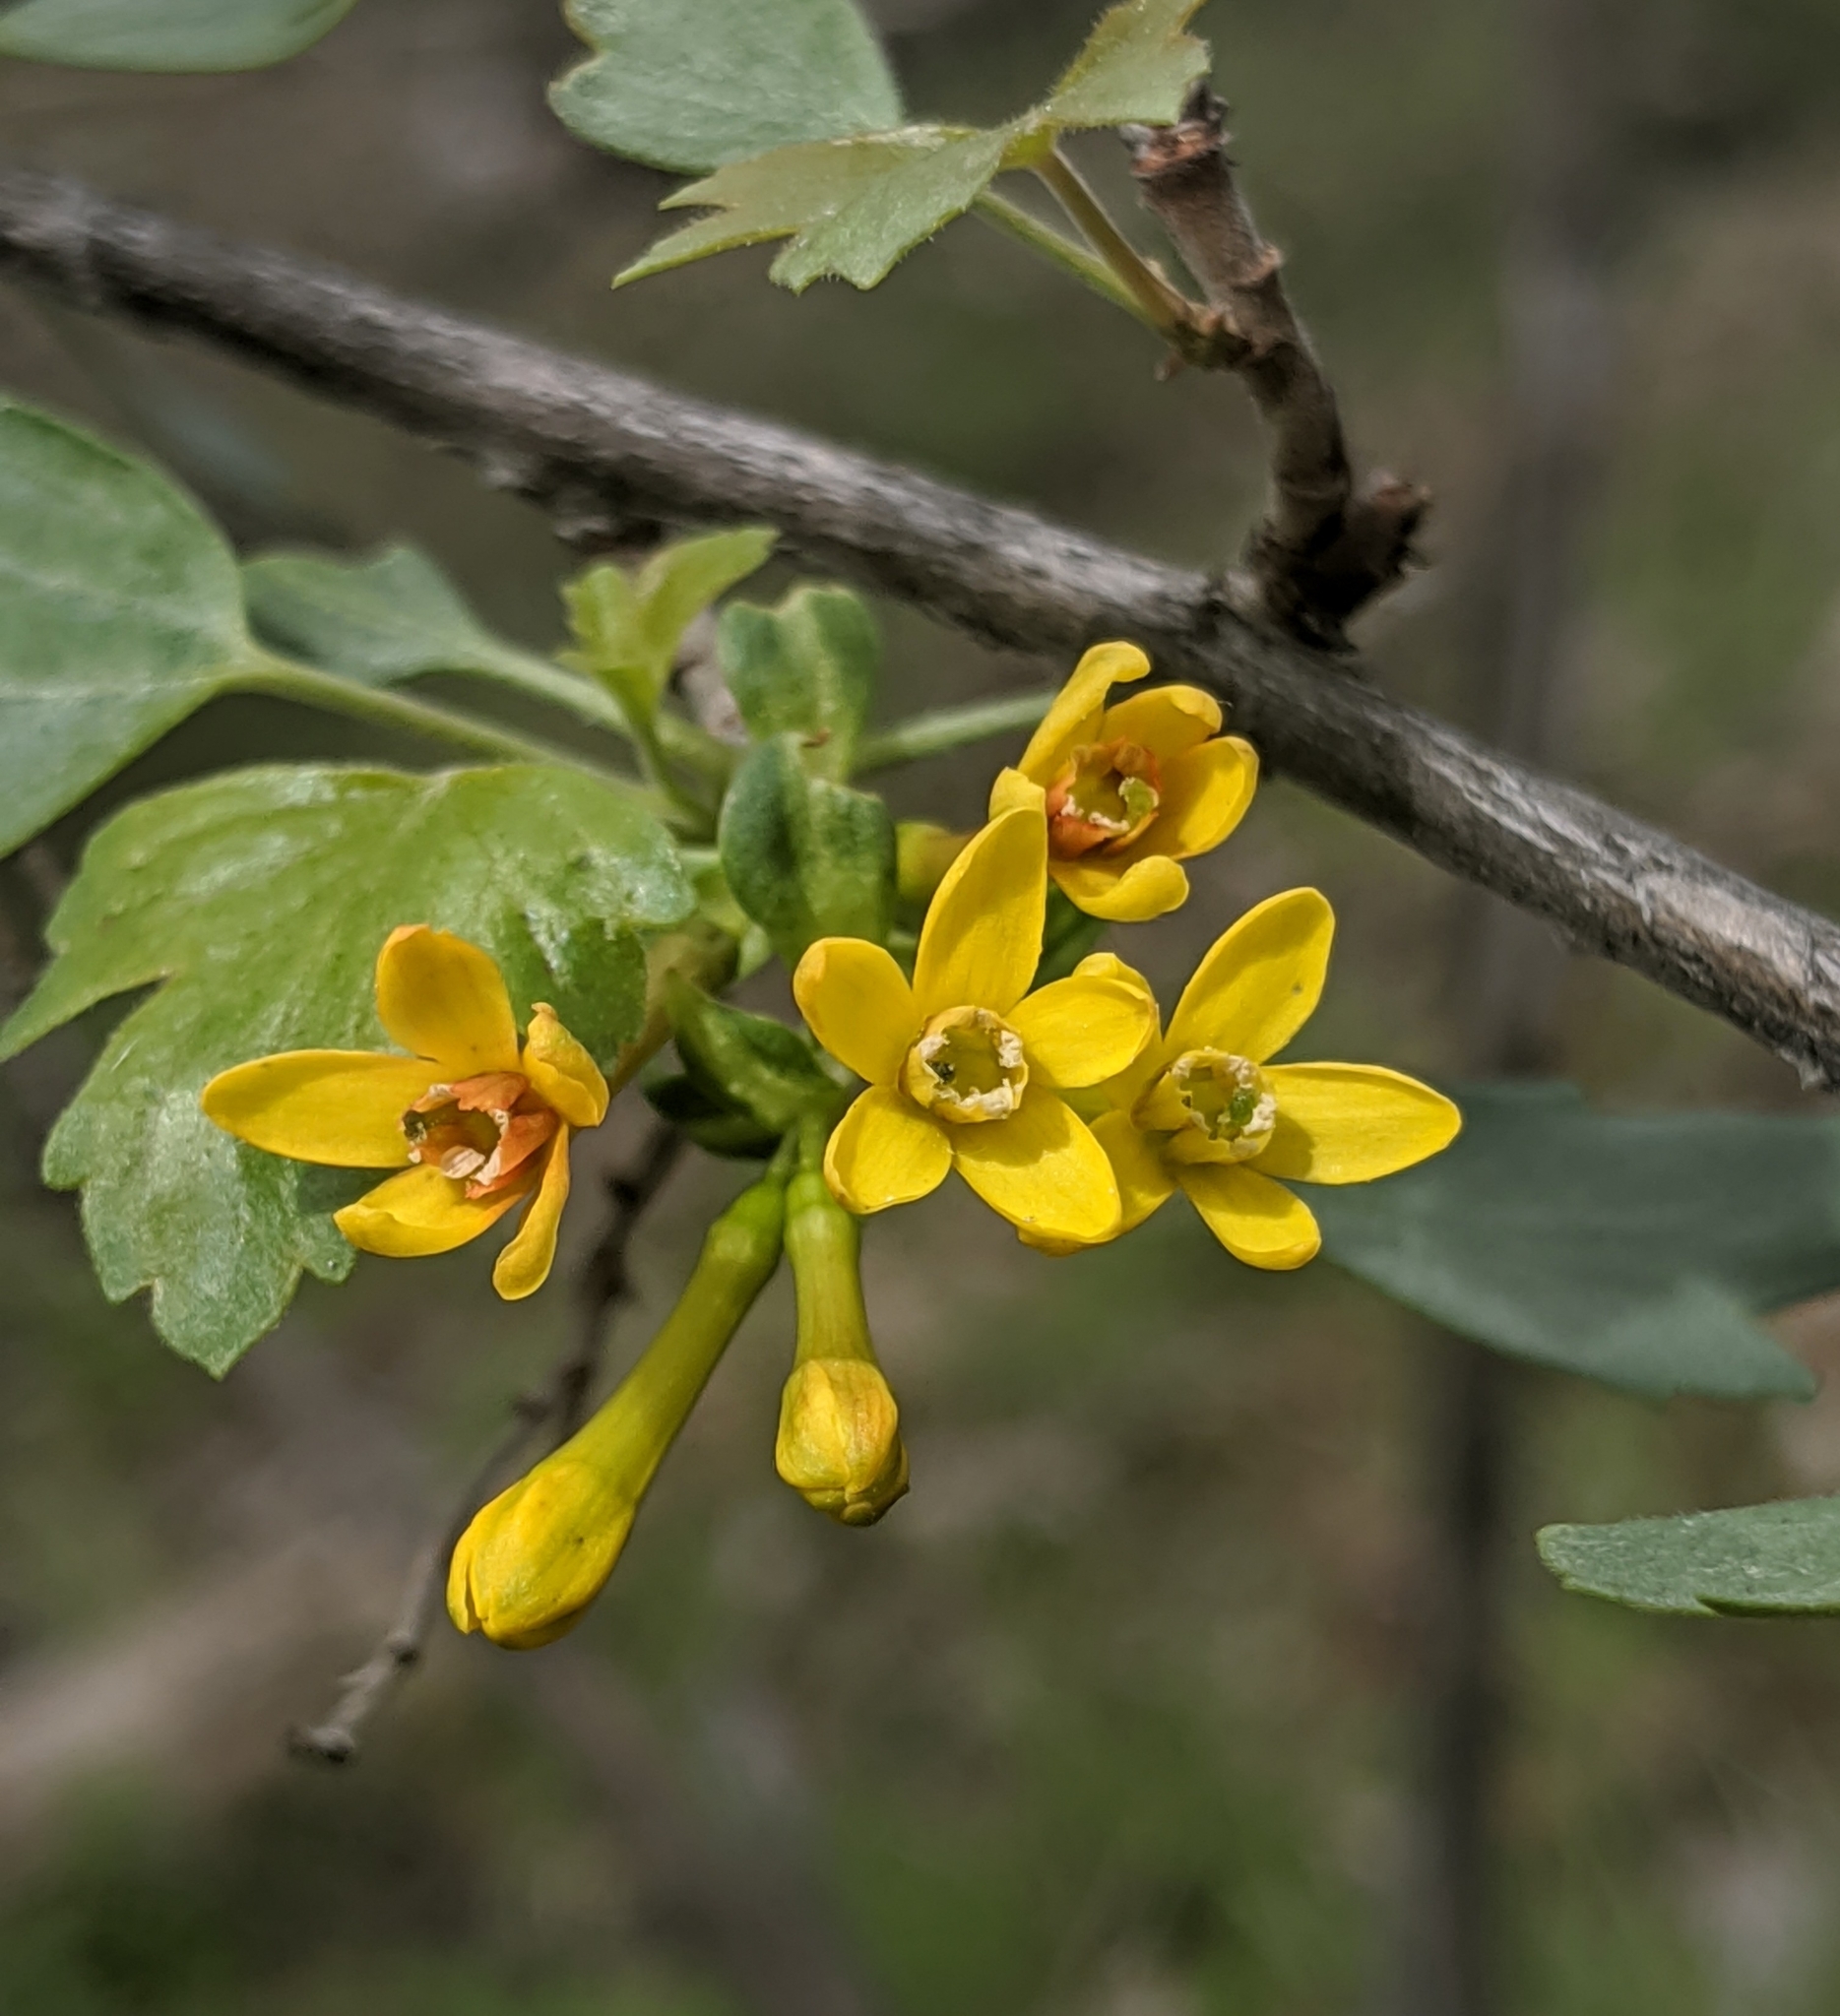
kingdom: Plantae
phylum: Tracheophyta
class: Magnoliopsida
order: Saxifragales
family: Grossulariaceae
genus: Ribes
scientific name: Ribes aureum
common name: Golden currant
